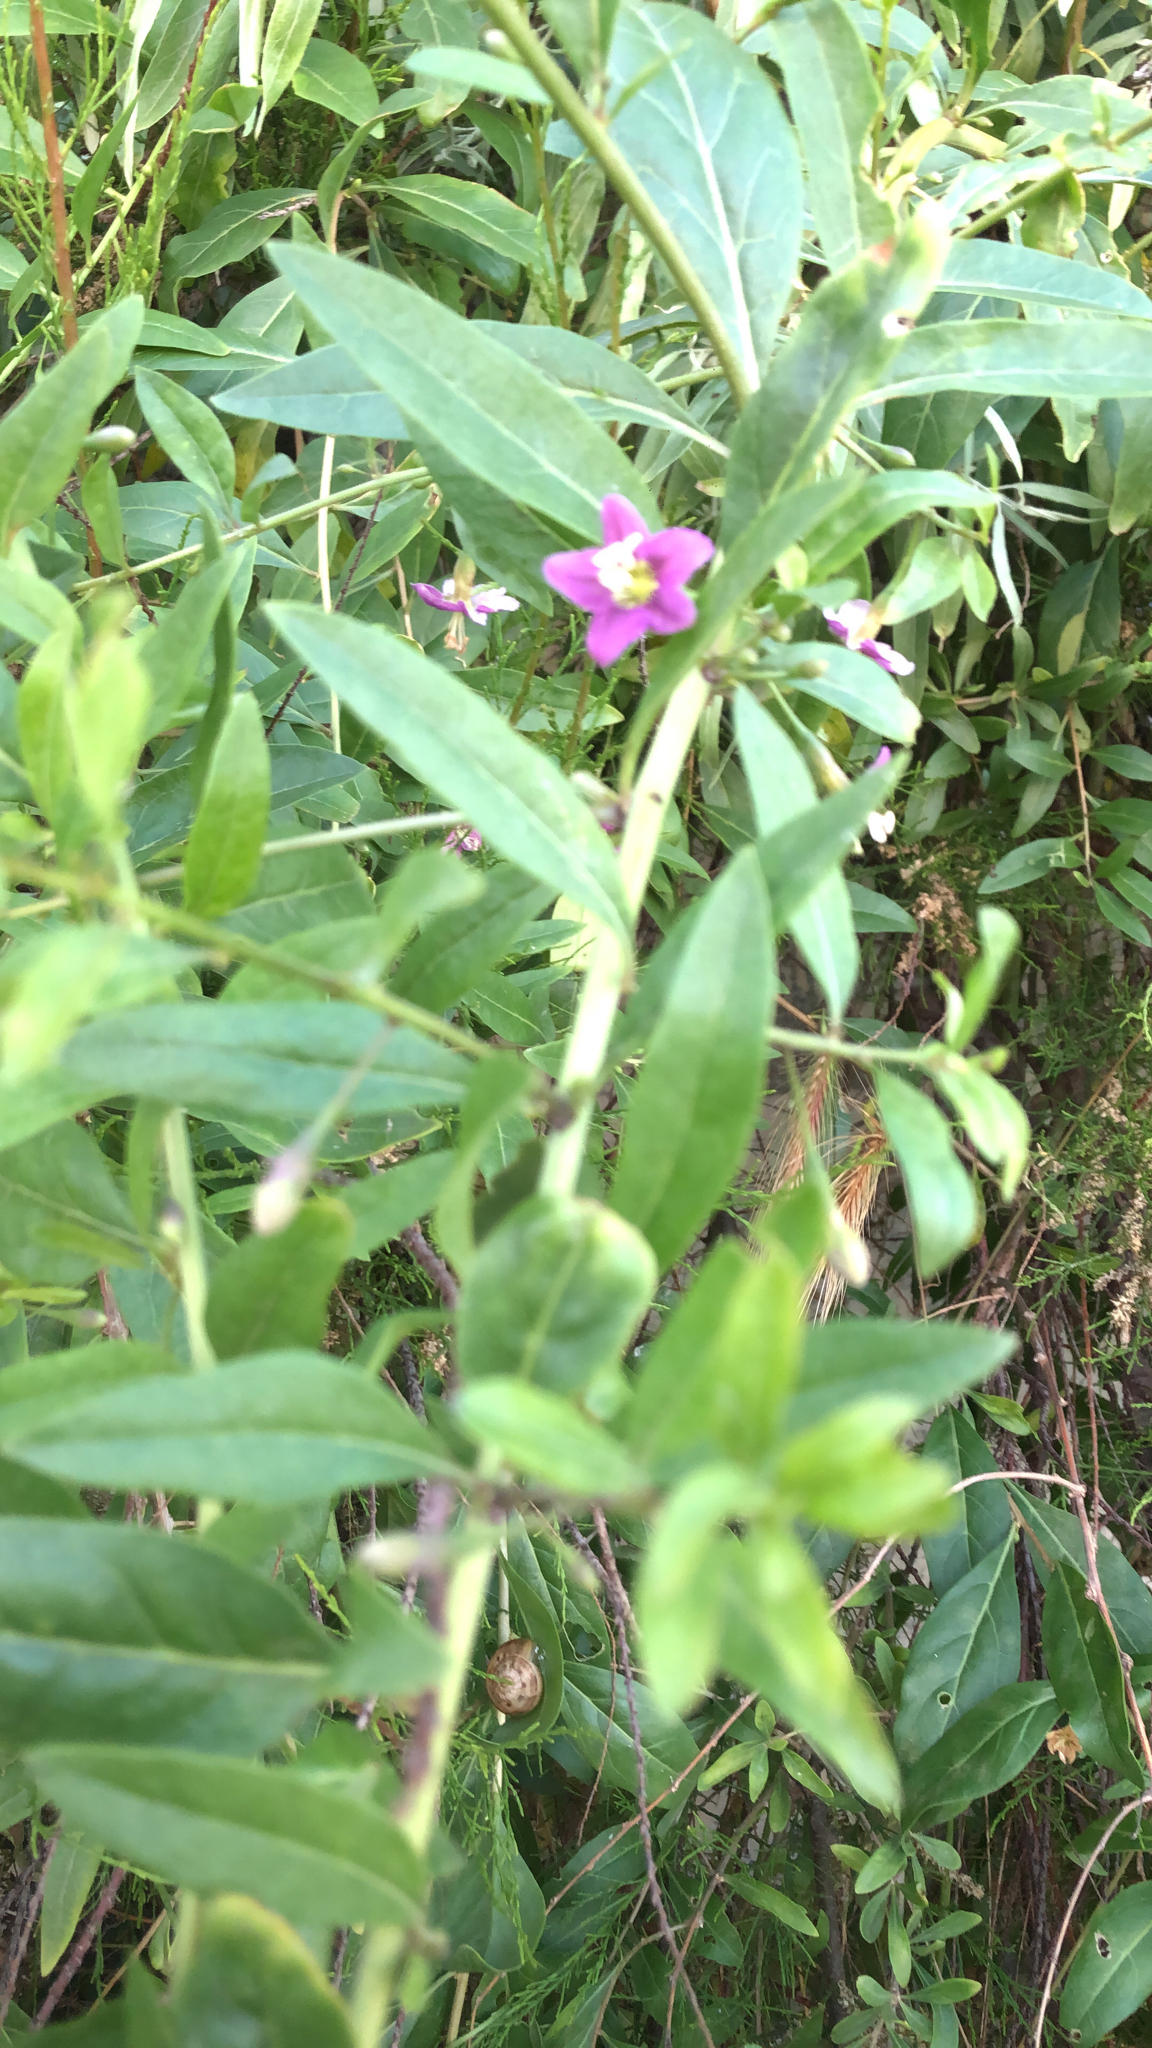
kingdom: Plantae
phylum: Tracheophyta
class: Magnoliopsida
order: Solanales
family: Solanaceae
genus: Lycium
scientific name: Lycium barbarum
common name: Duke of argyll's teaplant
